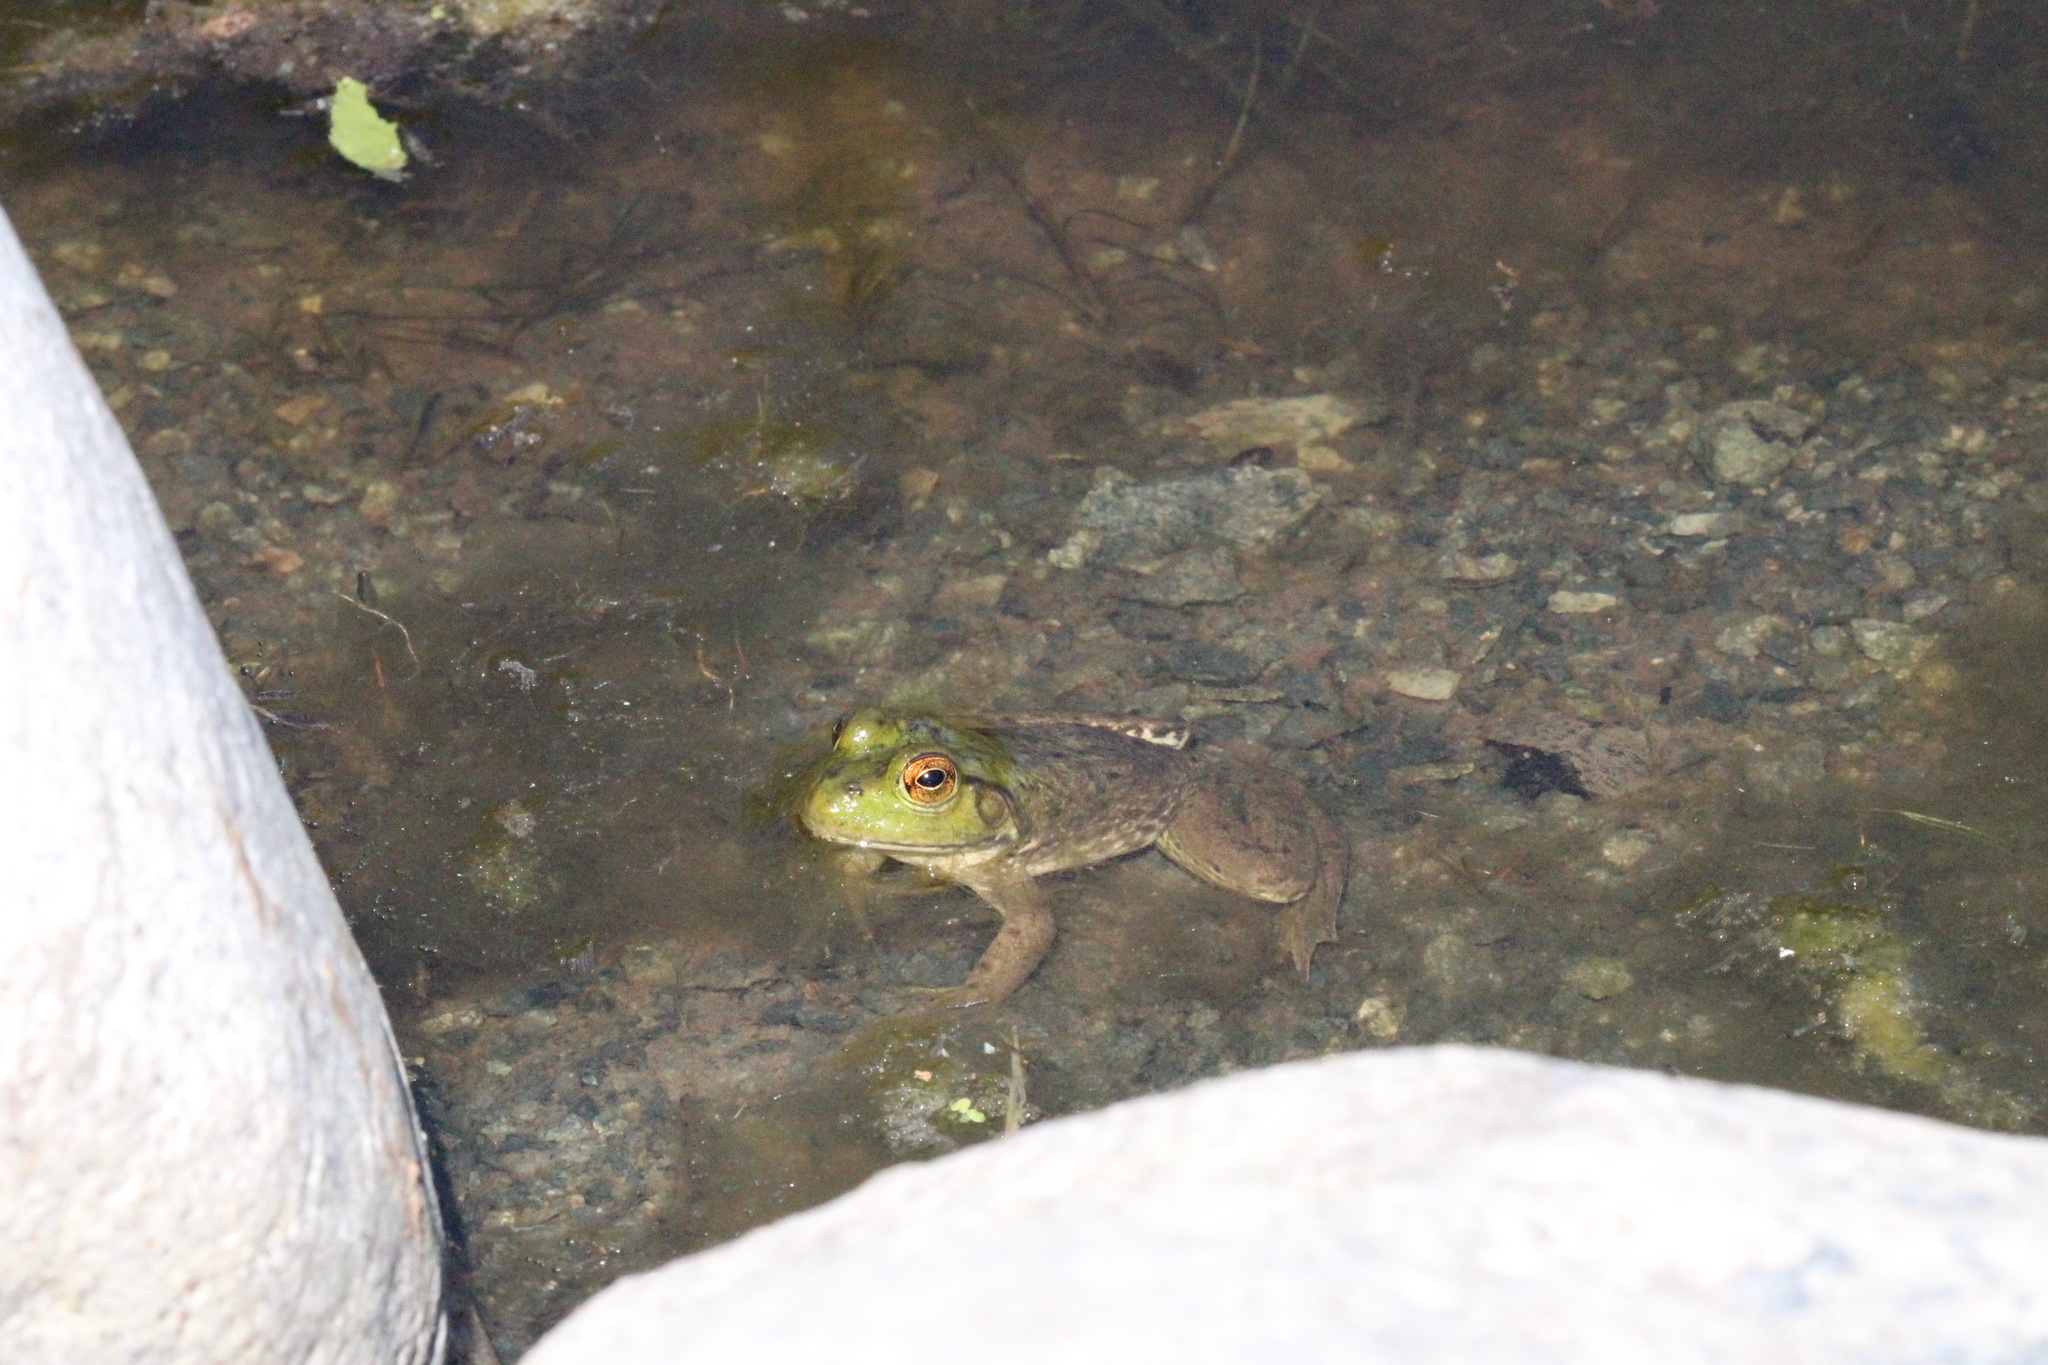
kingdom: Animalia
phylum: Chordata
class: Amphibia
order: Anura
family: Ranidae
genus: Lithobates
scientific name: Lithobates catesbeianus
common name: American bullfrog
